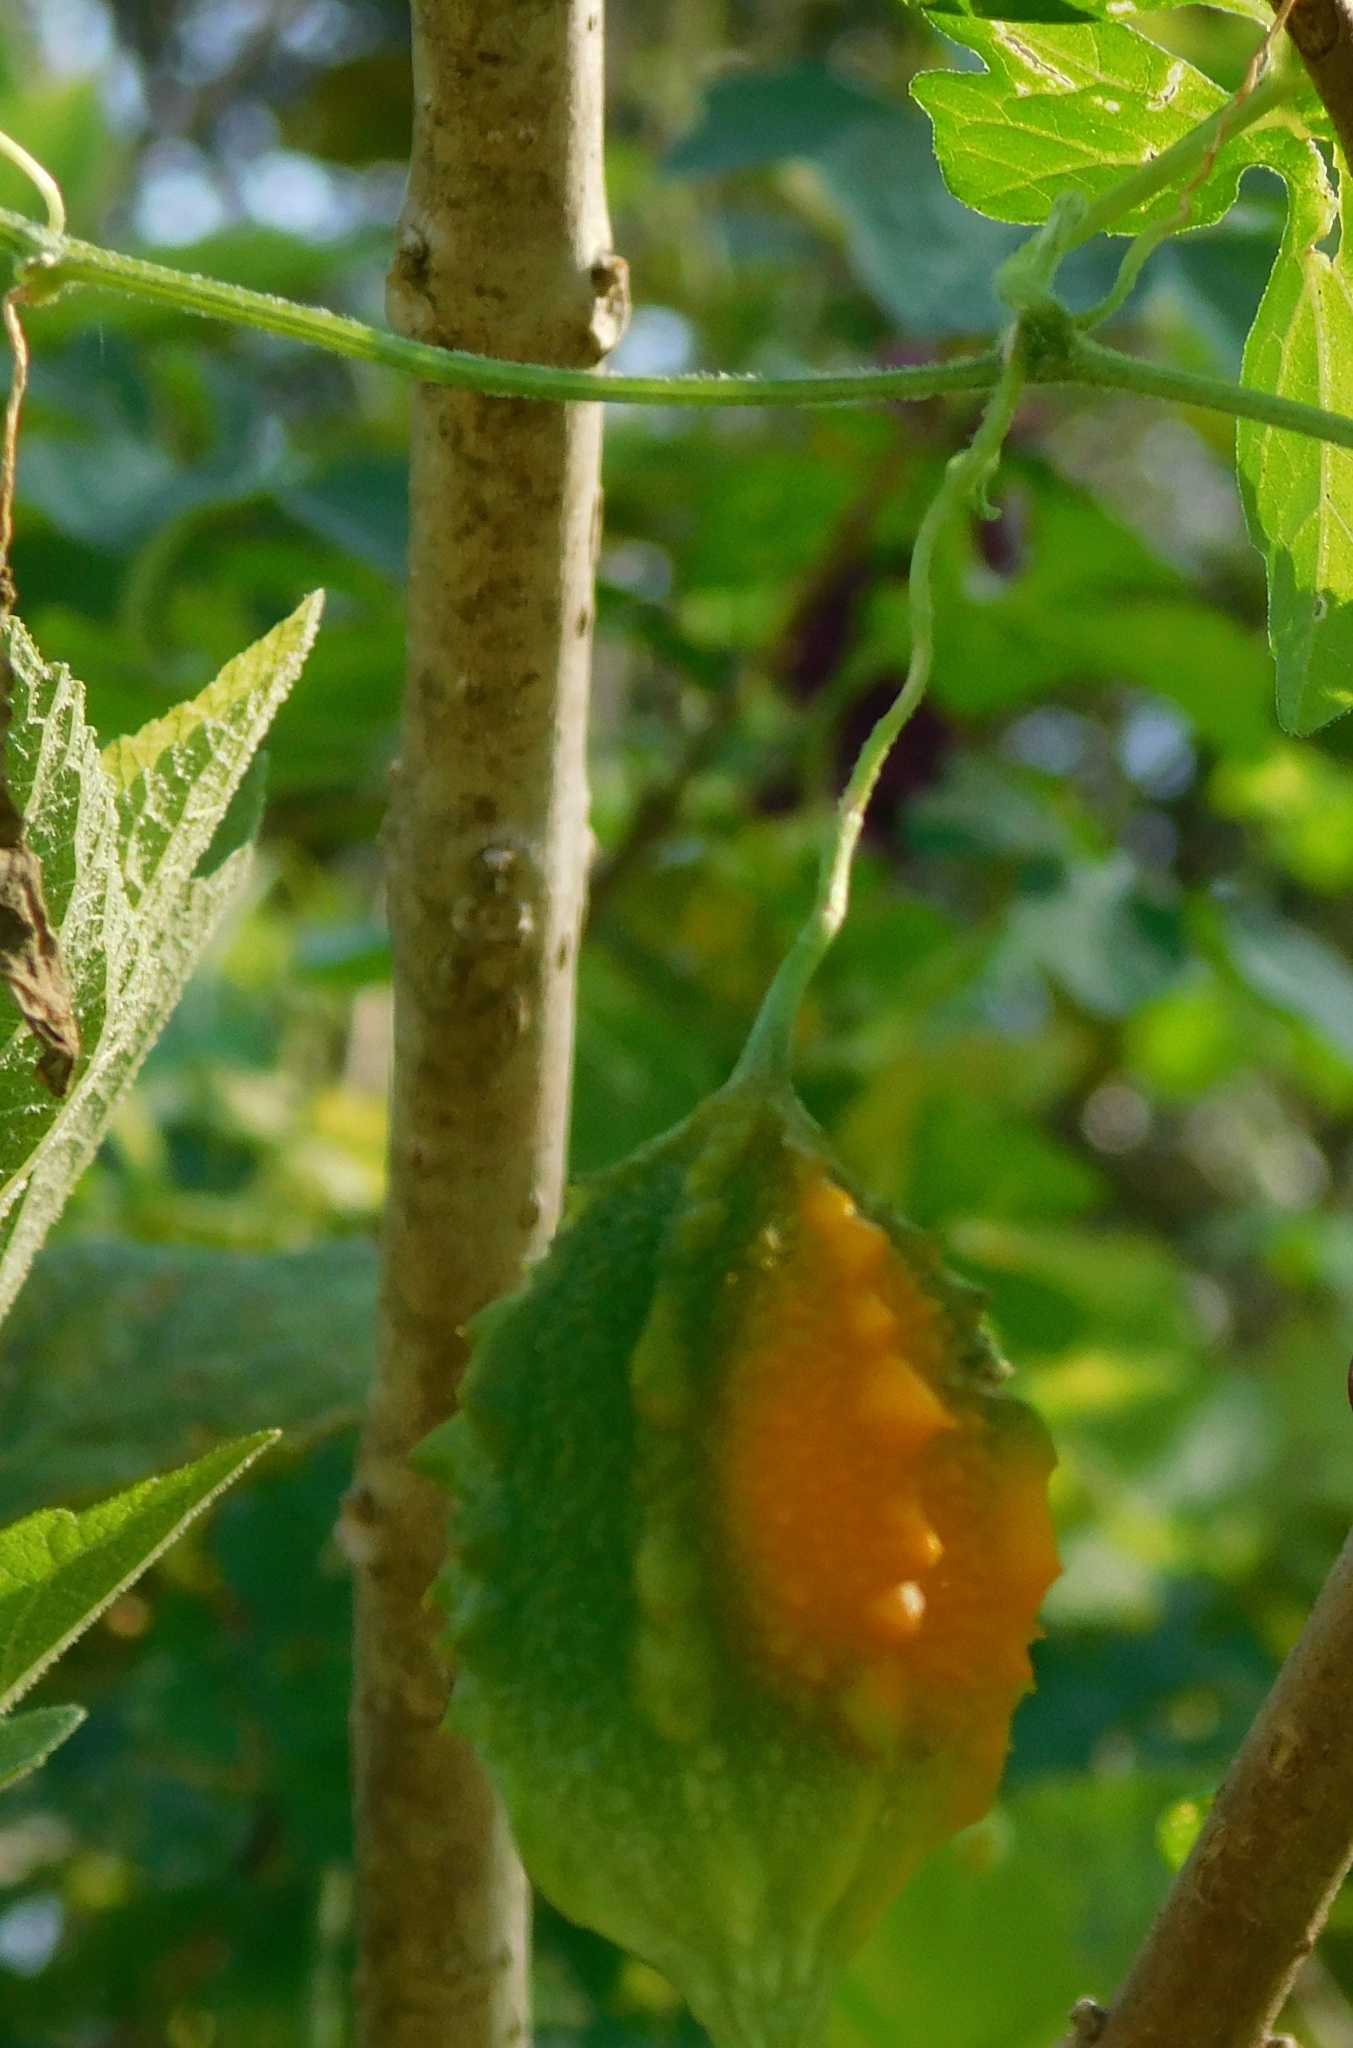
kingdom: Plantae
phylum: Tracheophyta
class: Magnoliopsida
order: Cucurbitales
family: Cucurbitaceae
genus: Momordica
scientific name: Momordica charantia
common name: Balsampear
